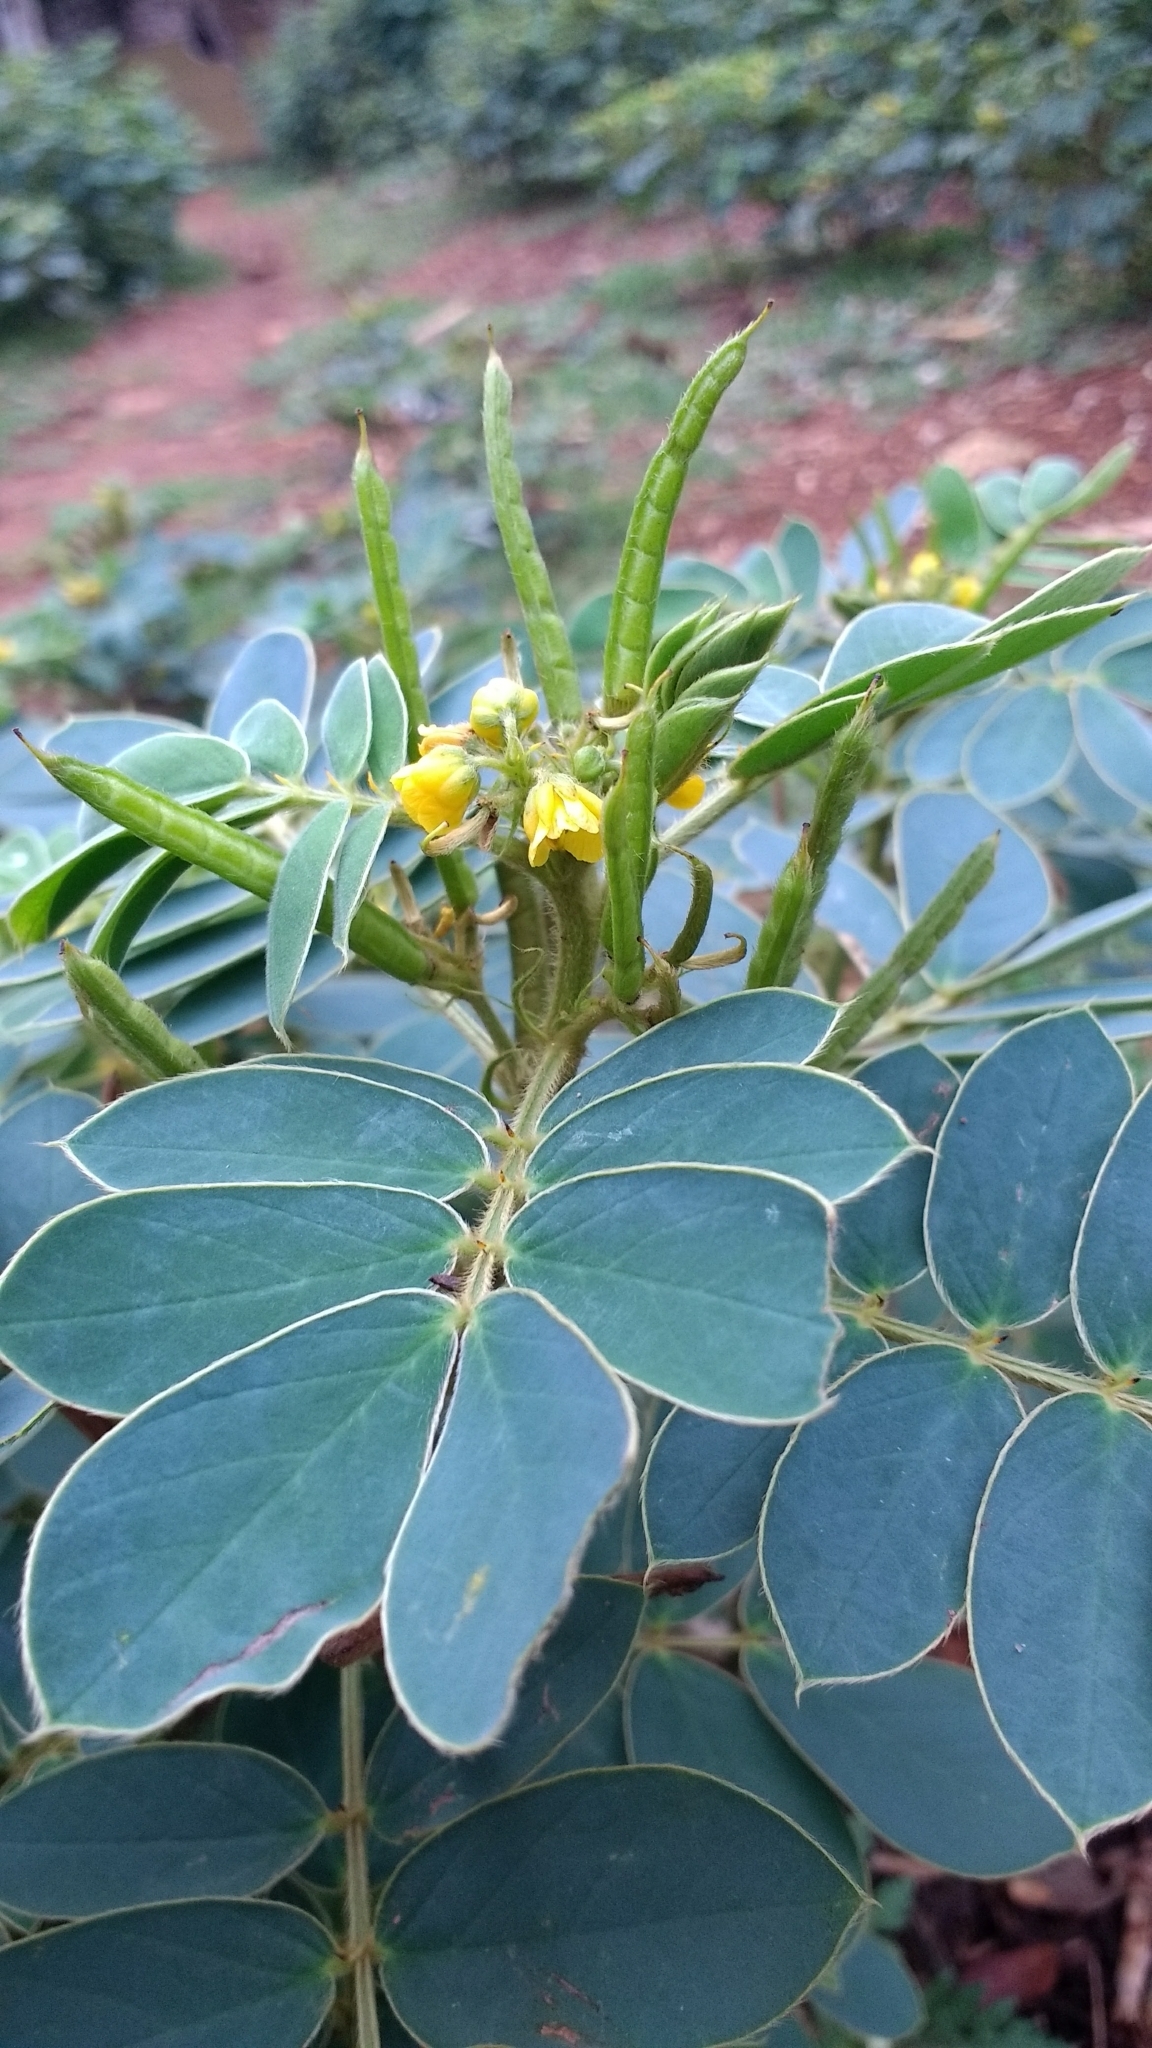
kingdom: Plantae
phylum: Tracheophyta
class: Magnoliopsida
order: Fabales
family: Fabaceae
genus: Senna
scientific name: Senna uniflora
